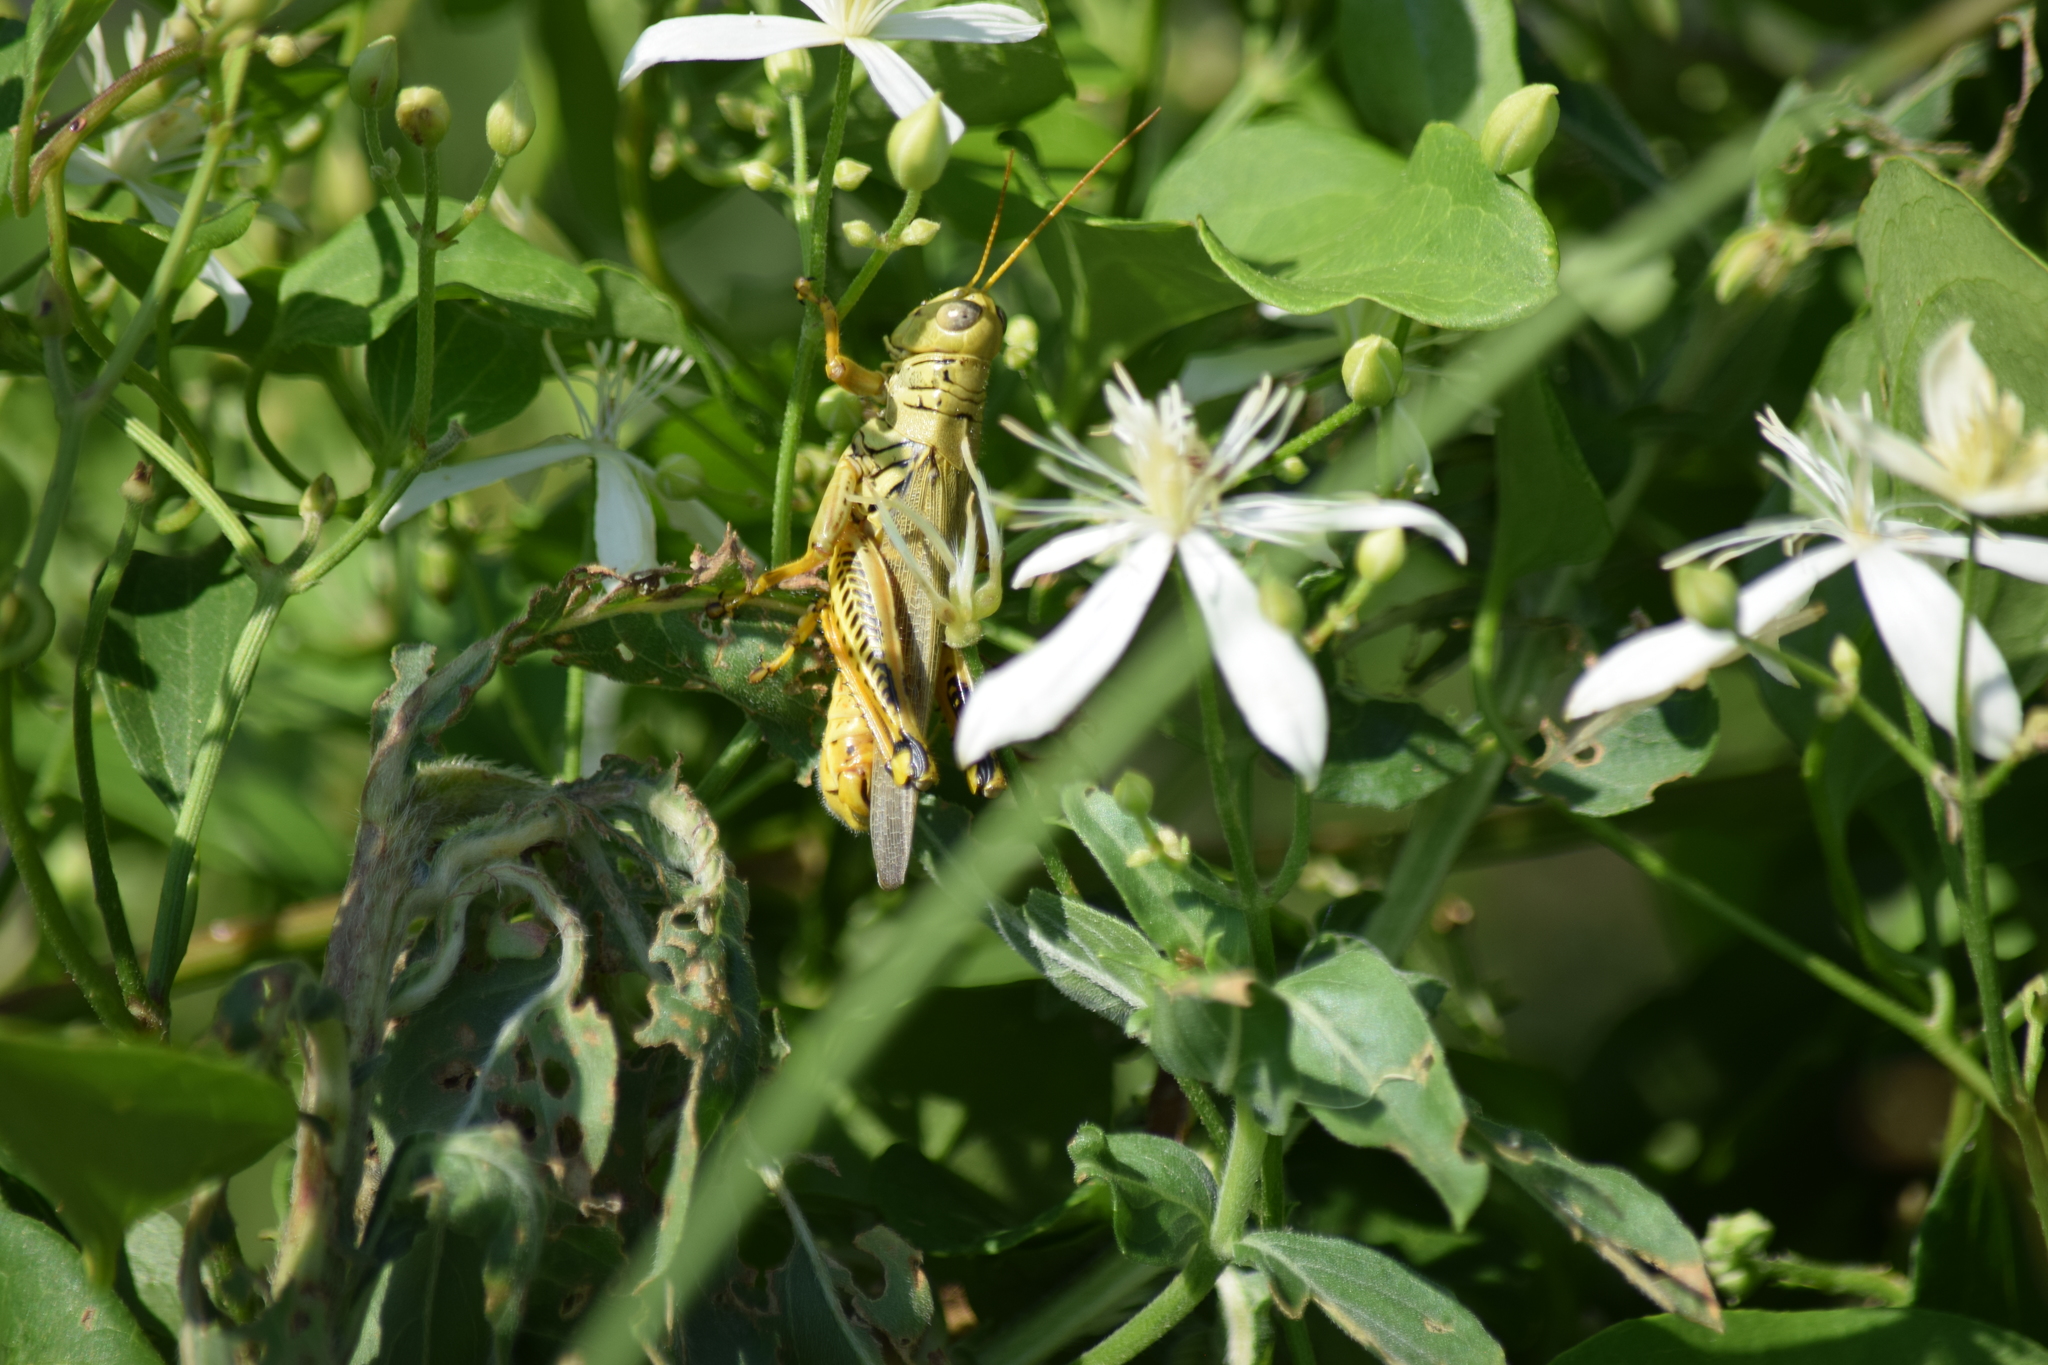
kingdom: Animalia
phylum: Arthropoda
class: Insecta
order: Orthoptera
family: Acrididae
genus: Melanoplus
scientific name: Melanoplus differentialis
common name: Differential grasshopper
